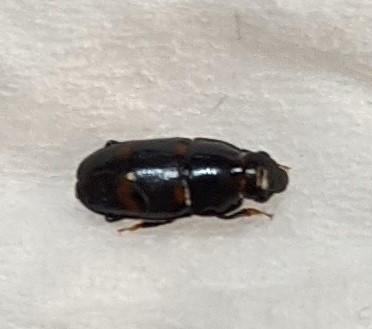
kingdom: Animalia
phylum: Arthropoda
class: Insecta
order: Coleoptera
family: Nitidulidae
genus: Glischrochilus
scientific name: Glischrochilus sanguinolentus
